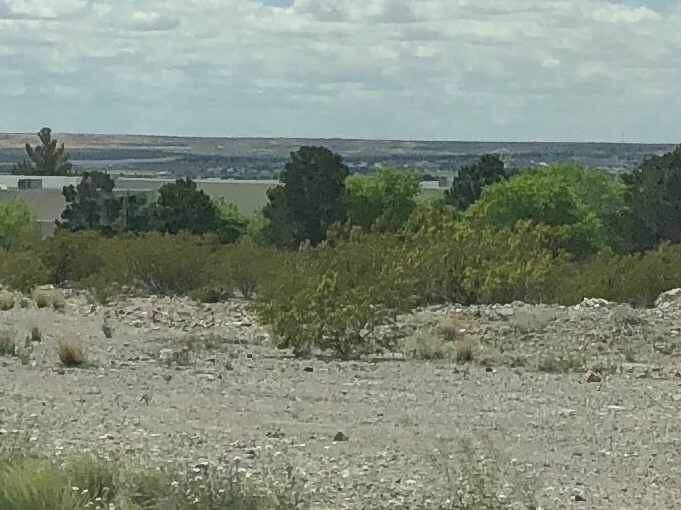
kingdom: Plantae
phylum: Tracheophyta
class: Magnoliopsida
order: Zygophyllales
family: Zygophyllaceae
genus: Larrea
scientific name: Larrea tridentata
